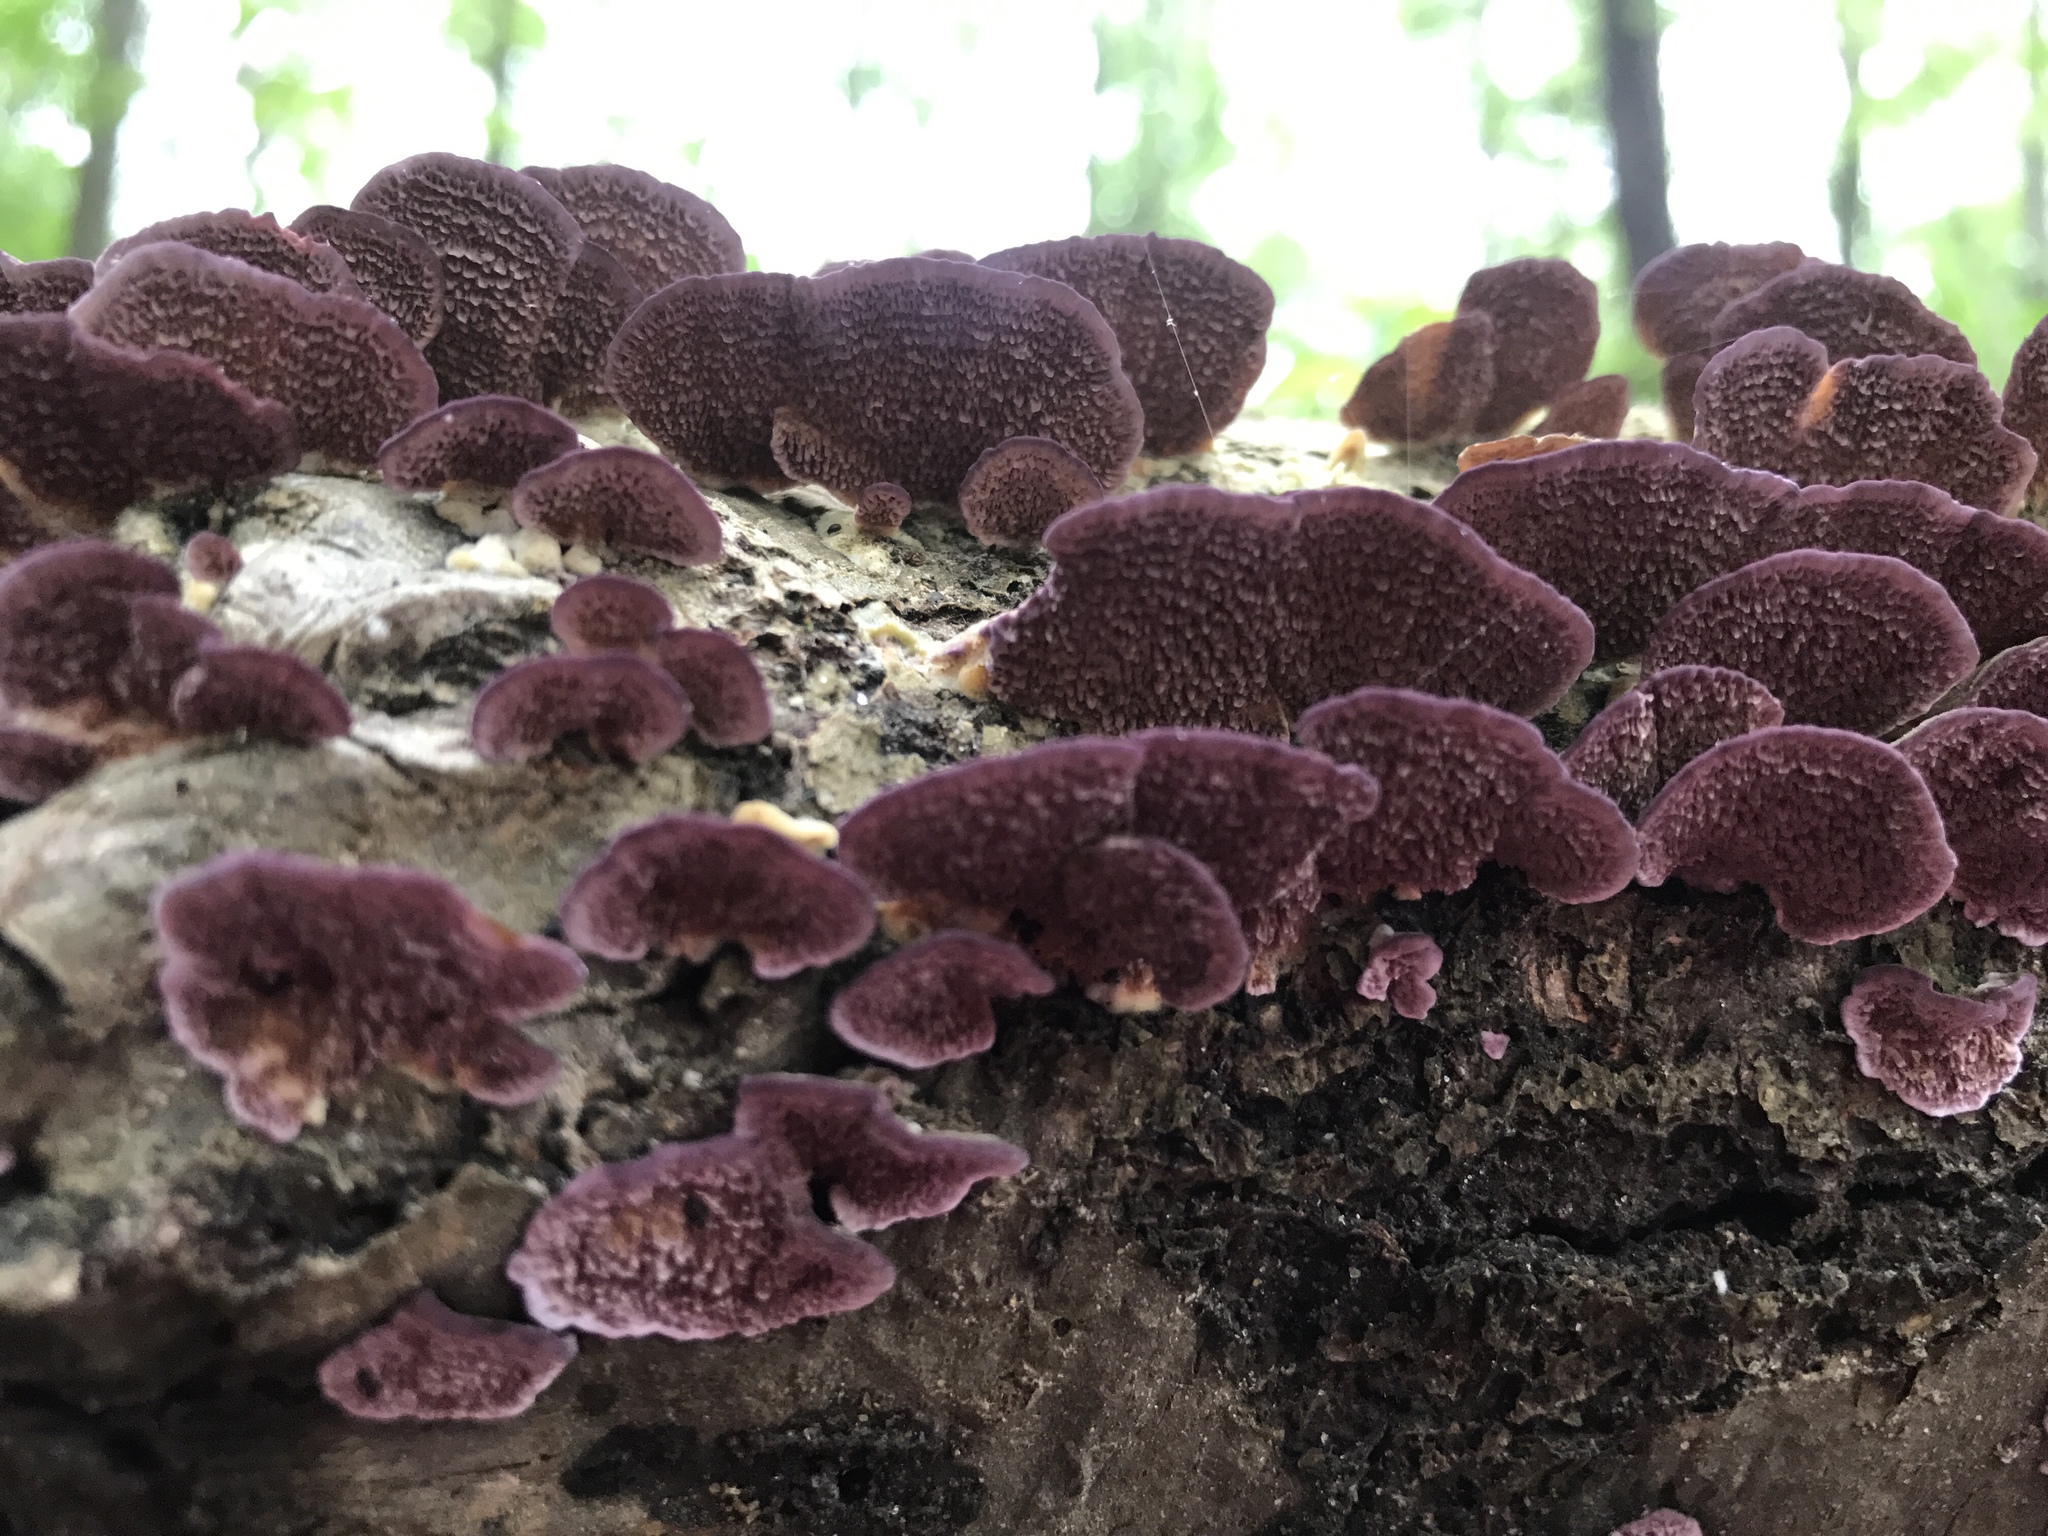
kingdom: Fungi
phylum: Basidiomycota
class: Agaricomycetes
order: Hymenochaetales
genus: Trichaptum
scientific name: Trichaptum biforme
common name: Violet-toothed polypore
